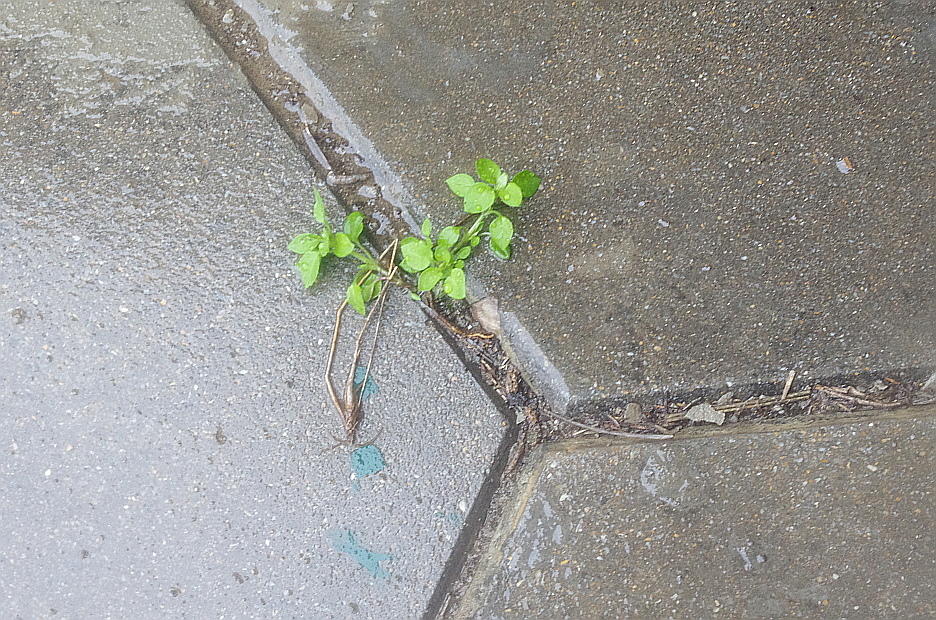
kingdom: Plantae
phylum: Tracheophyta
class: Magnoliopsida
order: Caryophyllales
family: Caryophyllaceae
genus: Stellaria
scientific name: Stellaria
